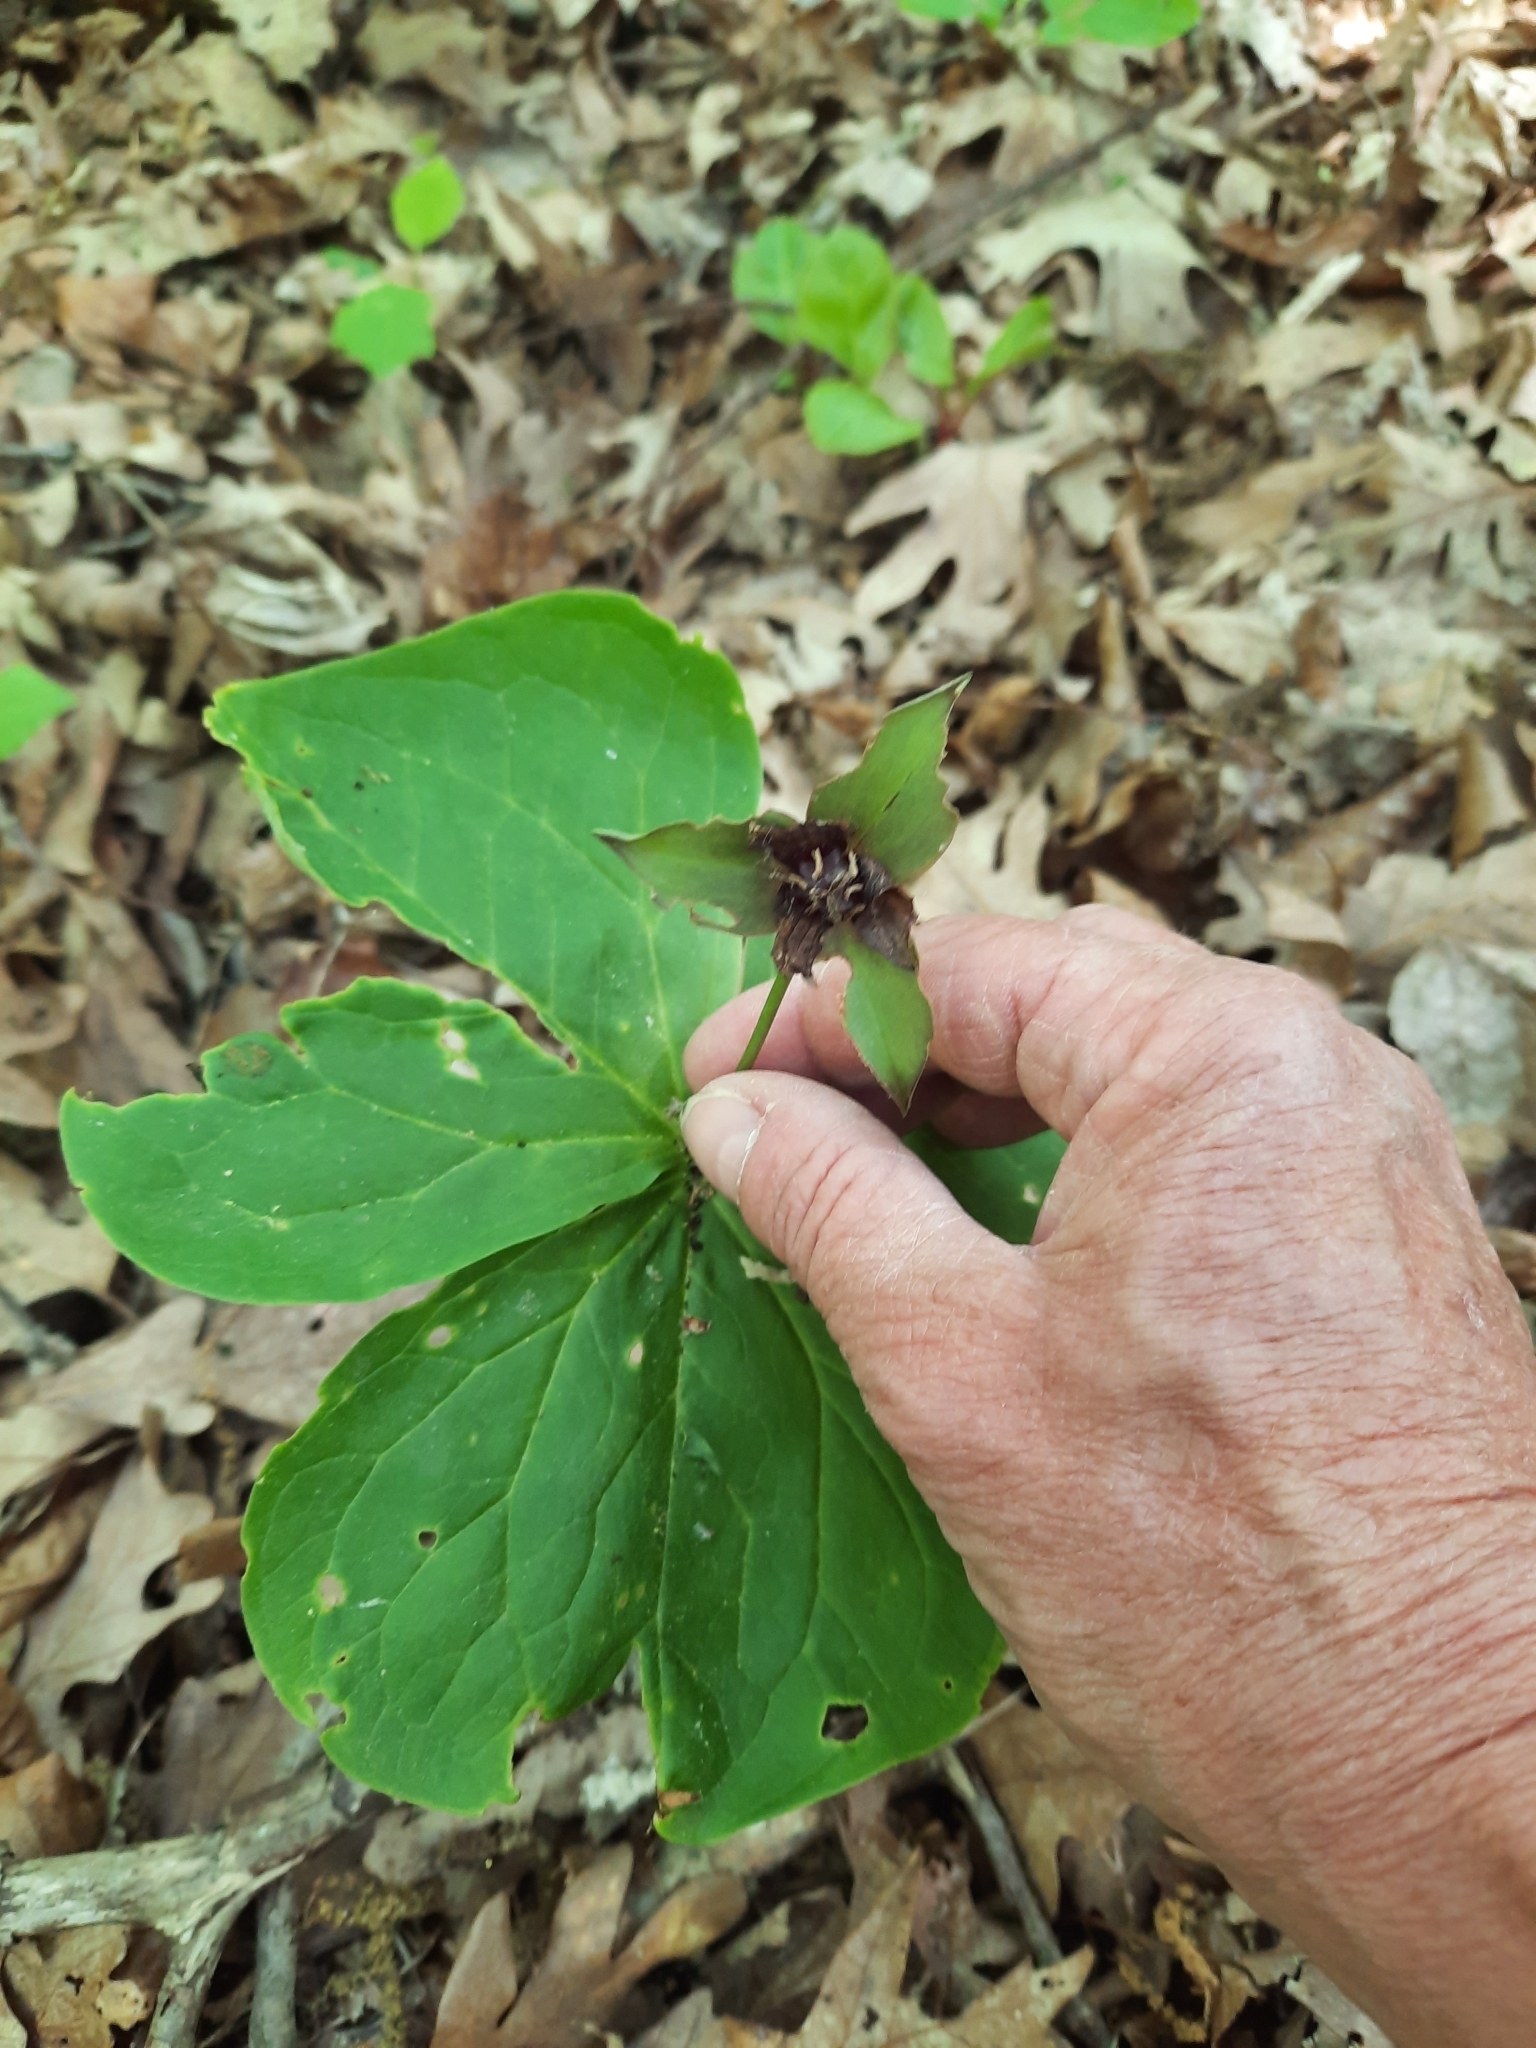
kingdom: Plantae
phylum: Tracheophyta
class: Liliopsida
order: Liliales
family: Melanthiaceae
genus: Trillium
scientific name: Trillium erectum
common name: Purple trillium
